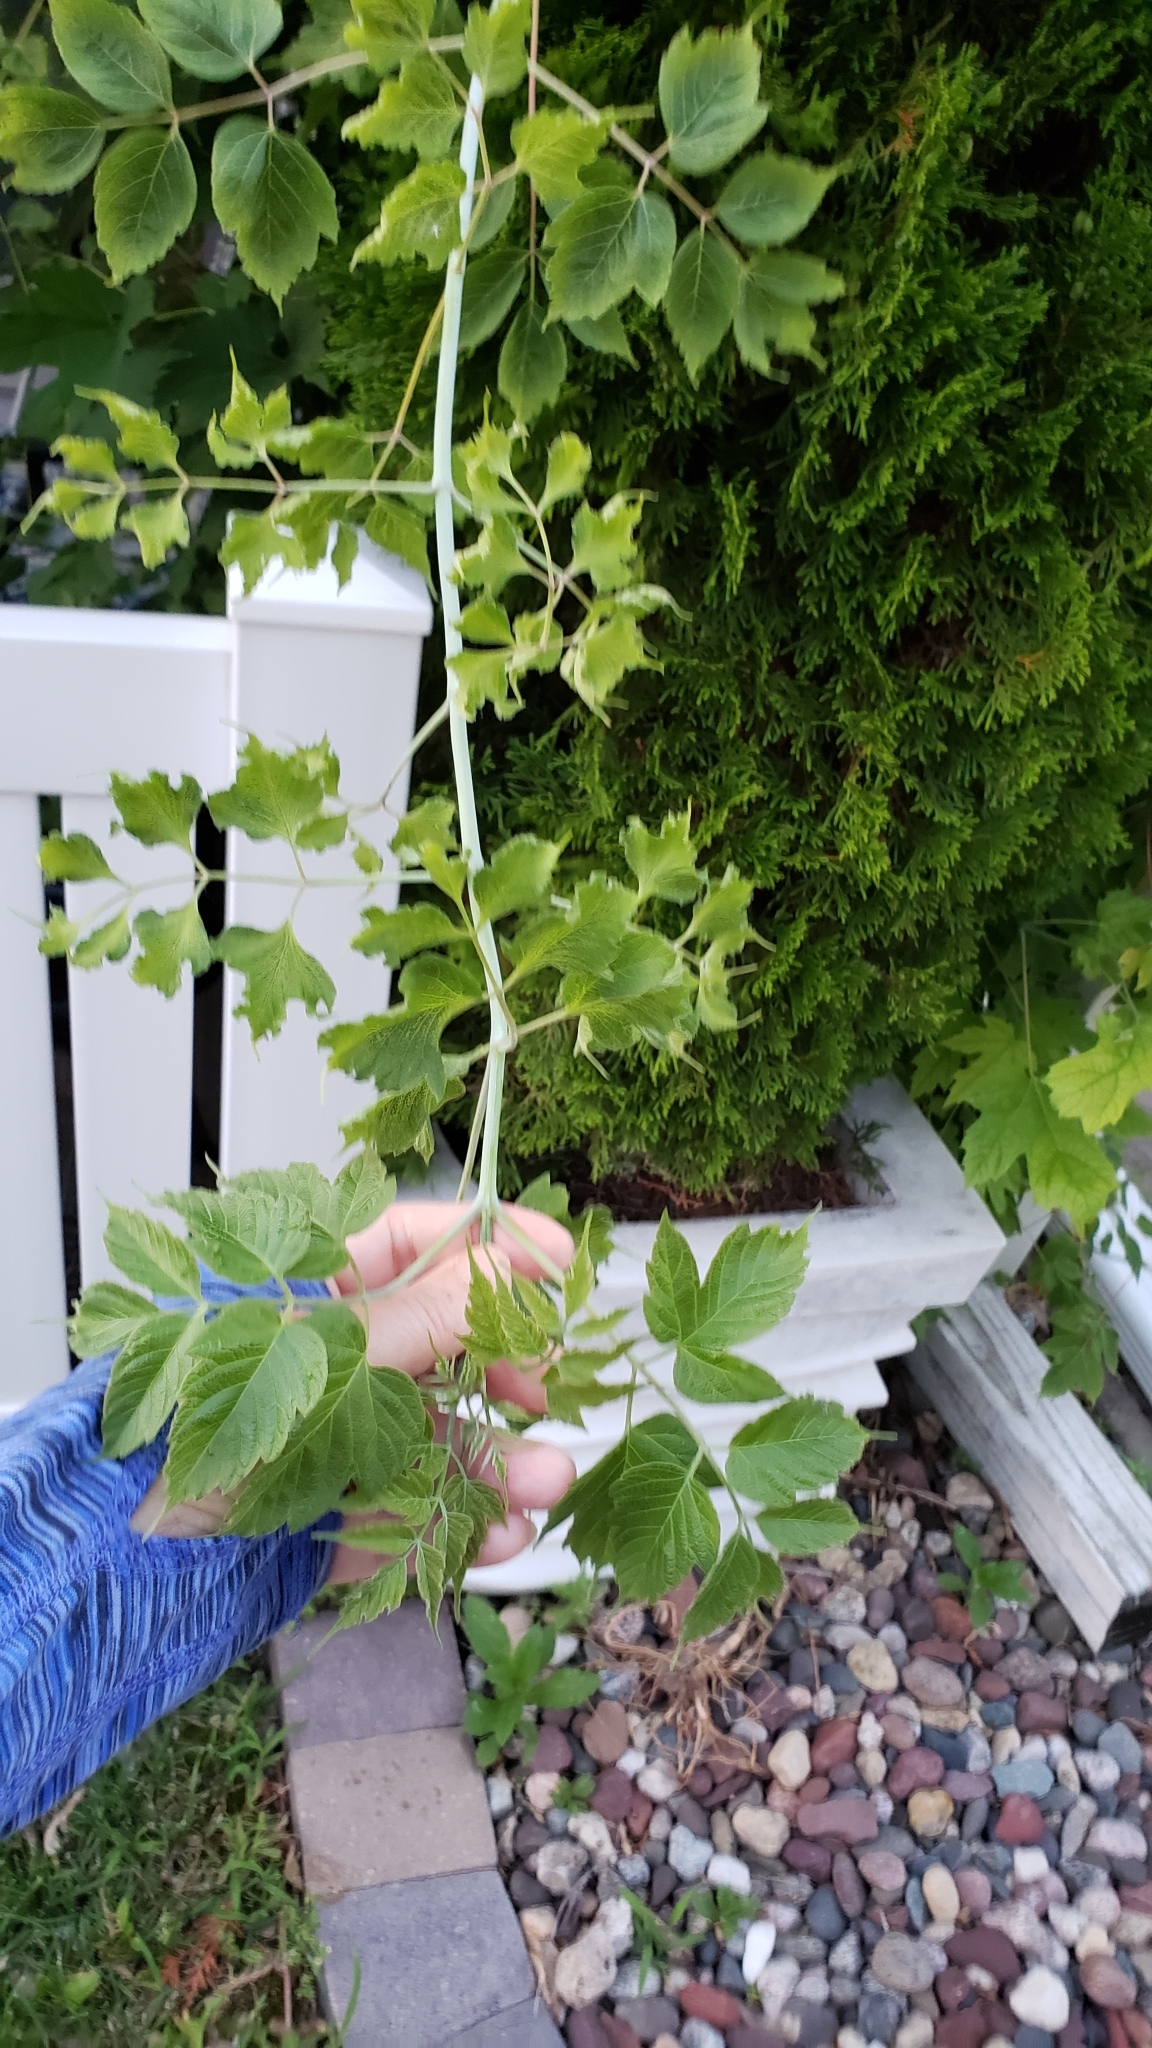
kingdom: Plantae
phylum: Tracheophyta
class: Magnoliopsida
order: Sapindales
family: Sapindaceae
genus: Acer
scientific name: Acer negundo
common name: Ashleaf maple
